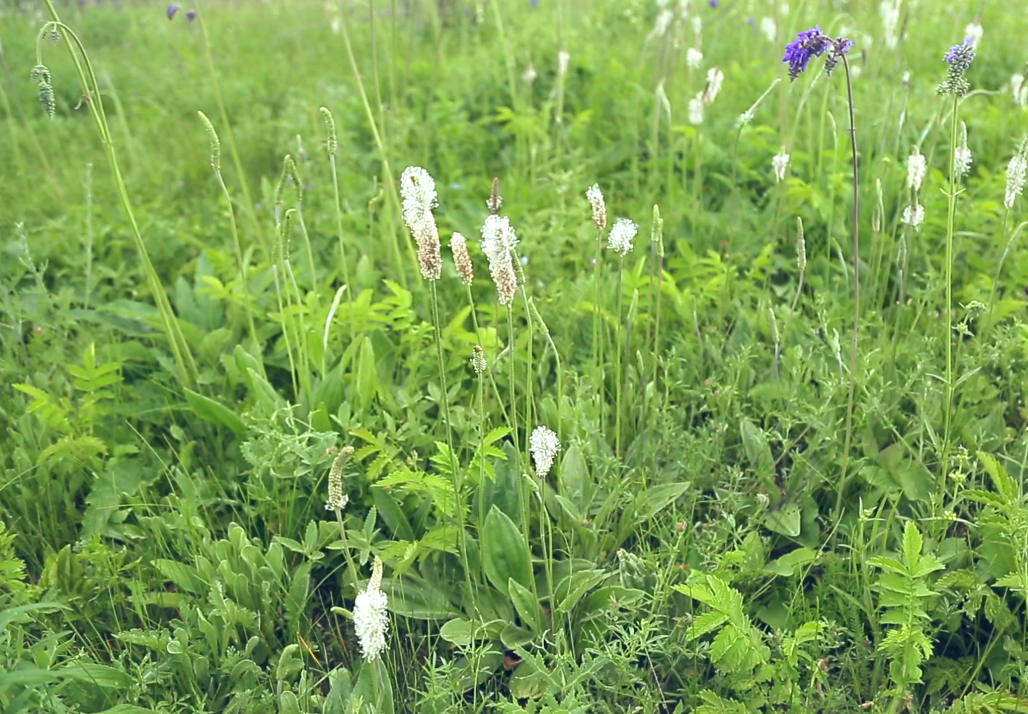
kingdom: Plantae
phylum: Tracheophyta
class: Magnoliopsida
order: Lamiales
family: Plantaginaceae
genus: Plantago
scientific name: Plantago urvillei
